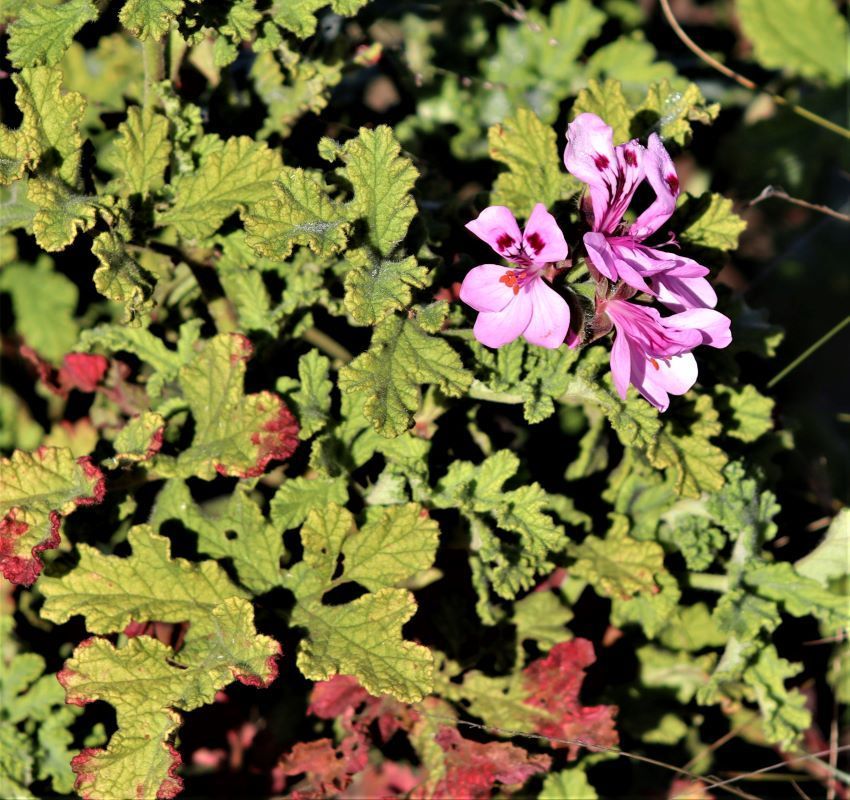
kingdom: Plantae
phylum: Tracheophyta
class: Magnoliopsida
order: Geraniales
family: Geraniaceae
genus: Pelargonium
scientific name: Pelargonium panduriforme
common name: Oakleaf garden geranium
